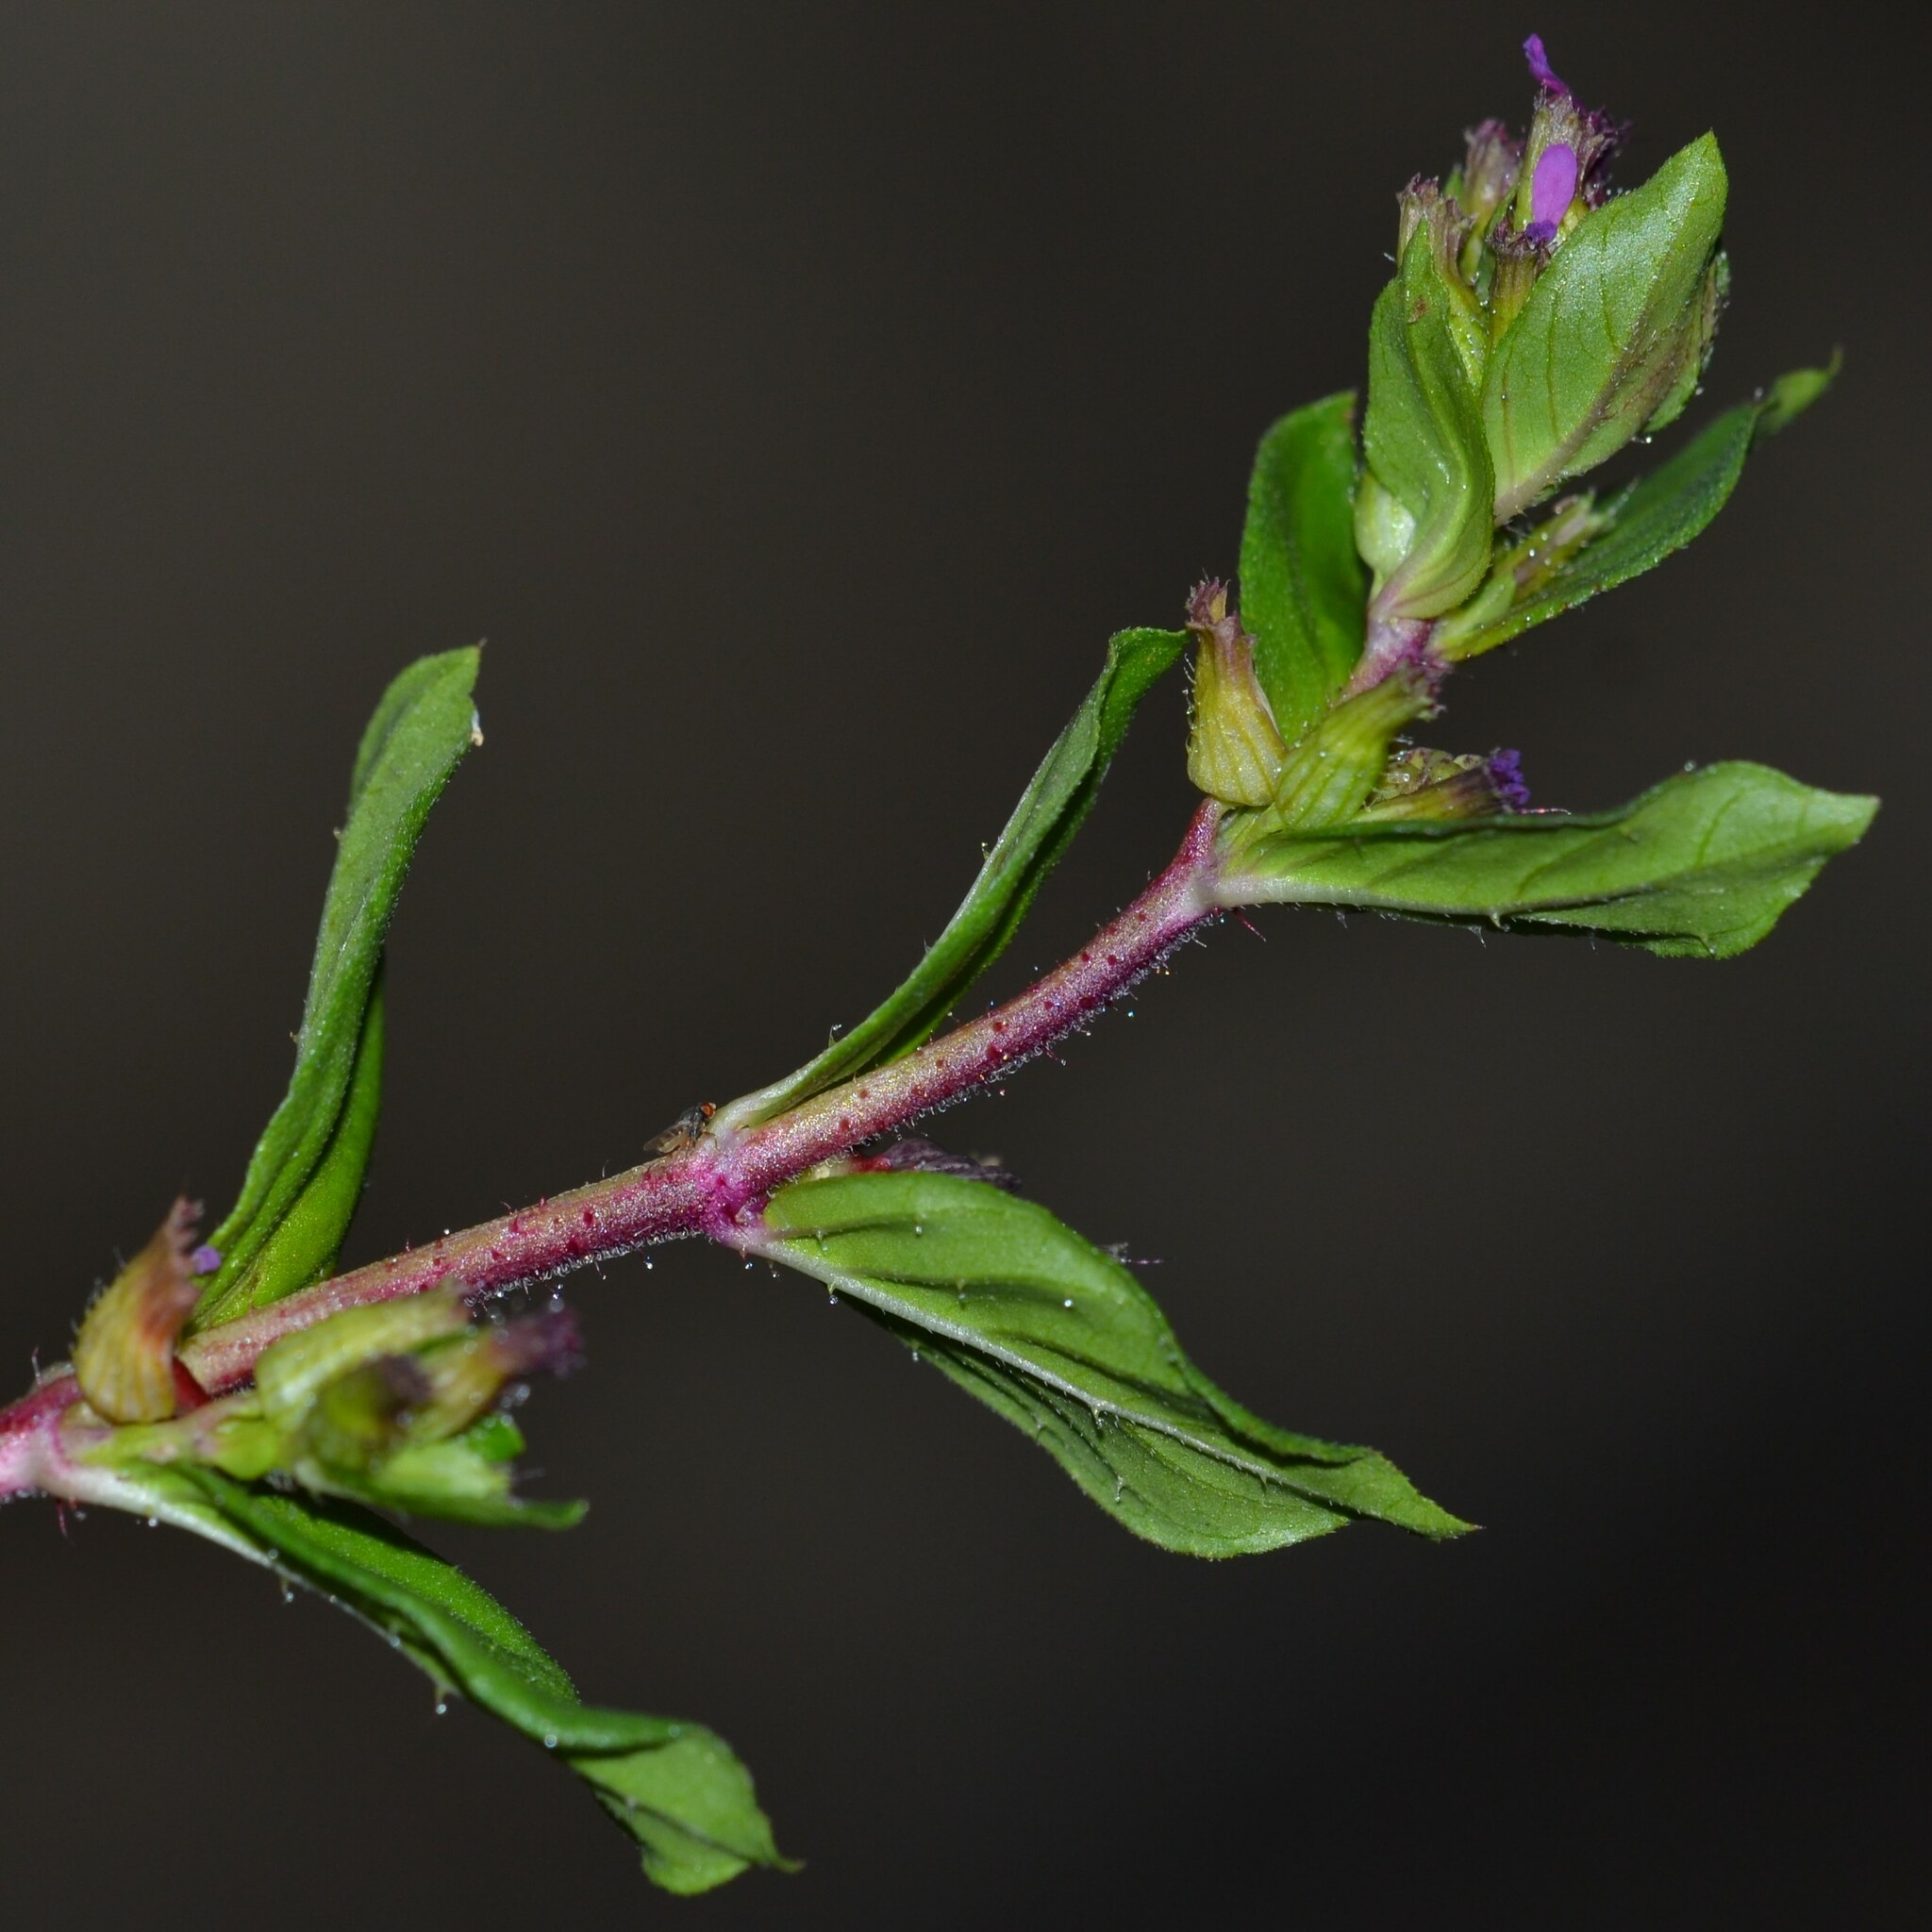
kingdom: Plantae
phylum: Tracheophyta
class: Magnoliopsida
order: Myrtales
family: Lythraceae
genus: Cuphea
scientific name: Cuphea carthagenensis
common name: Colombian waxweed
